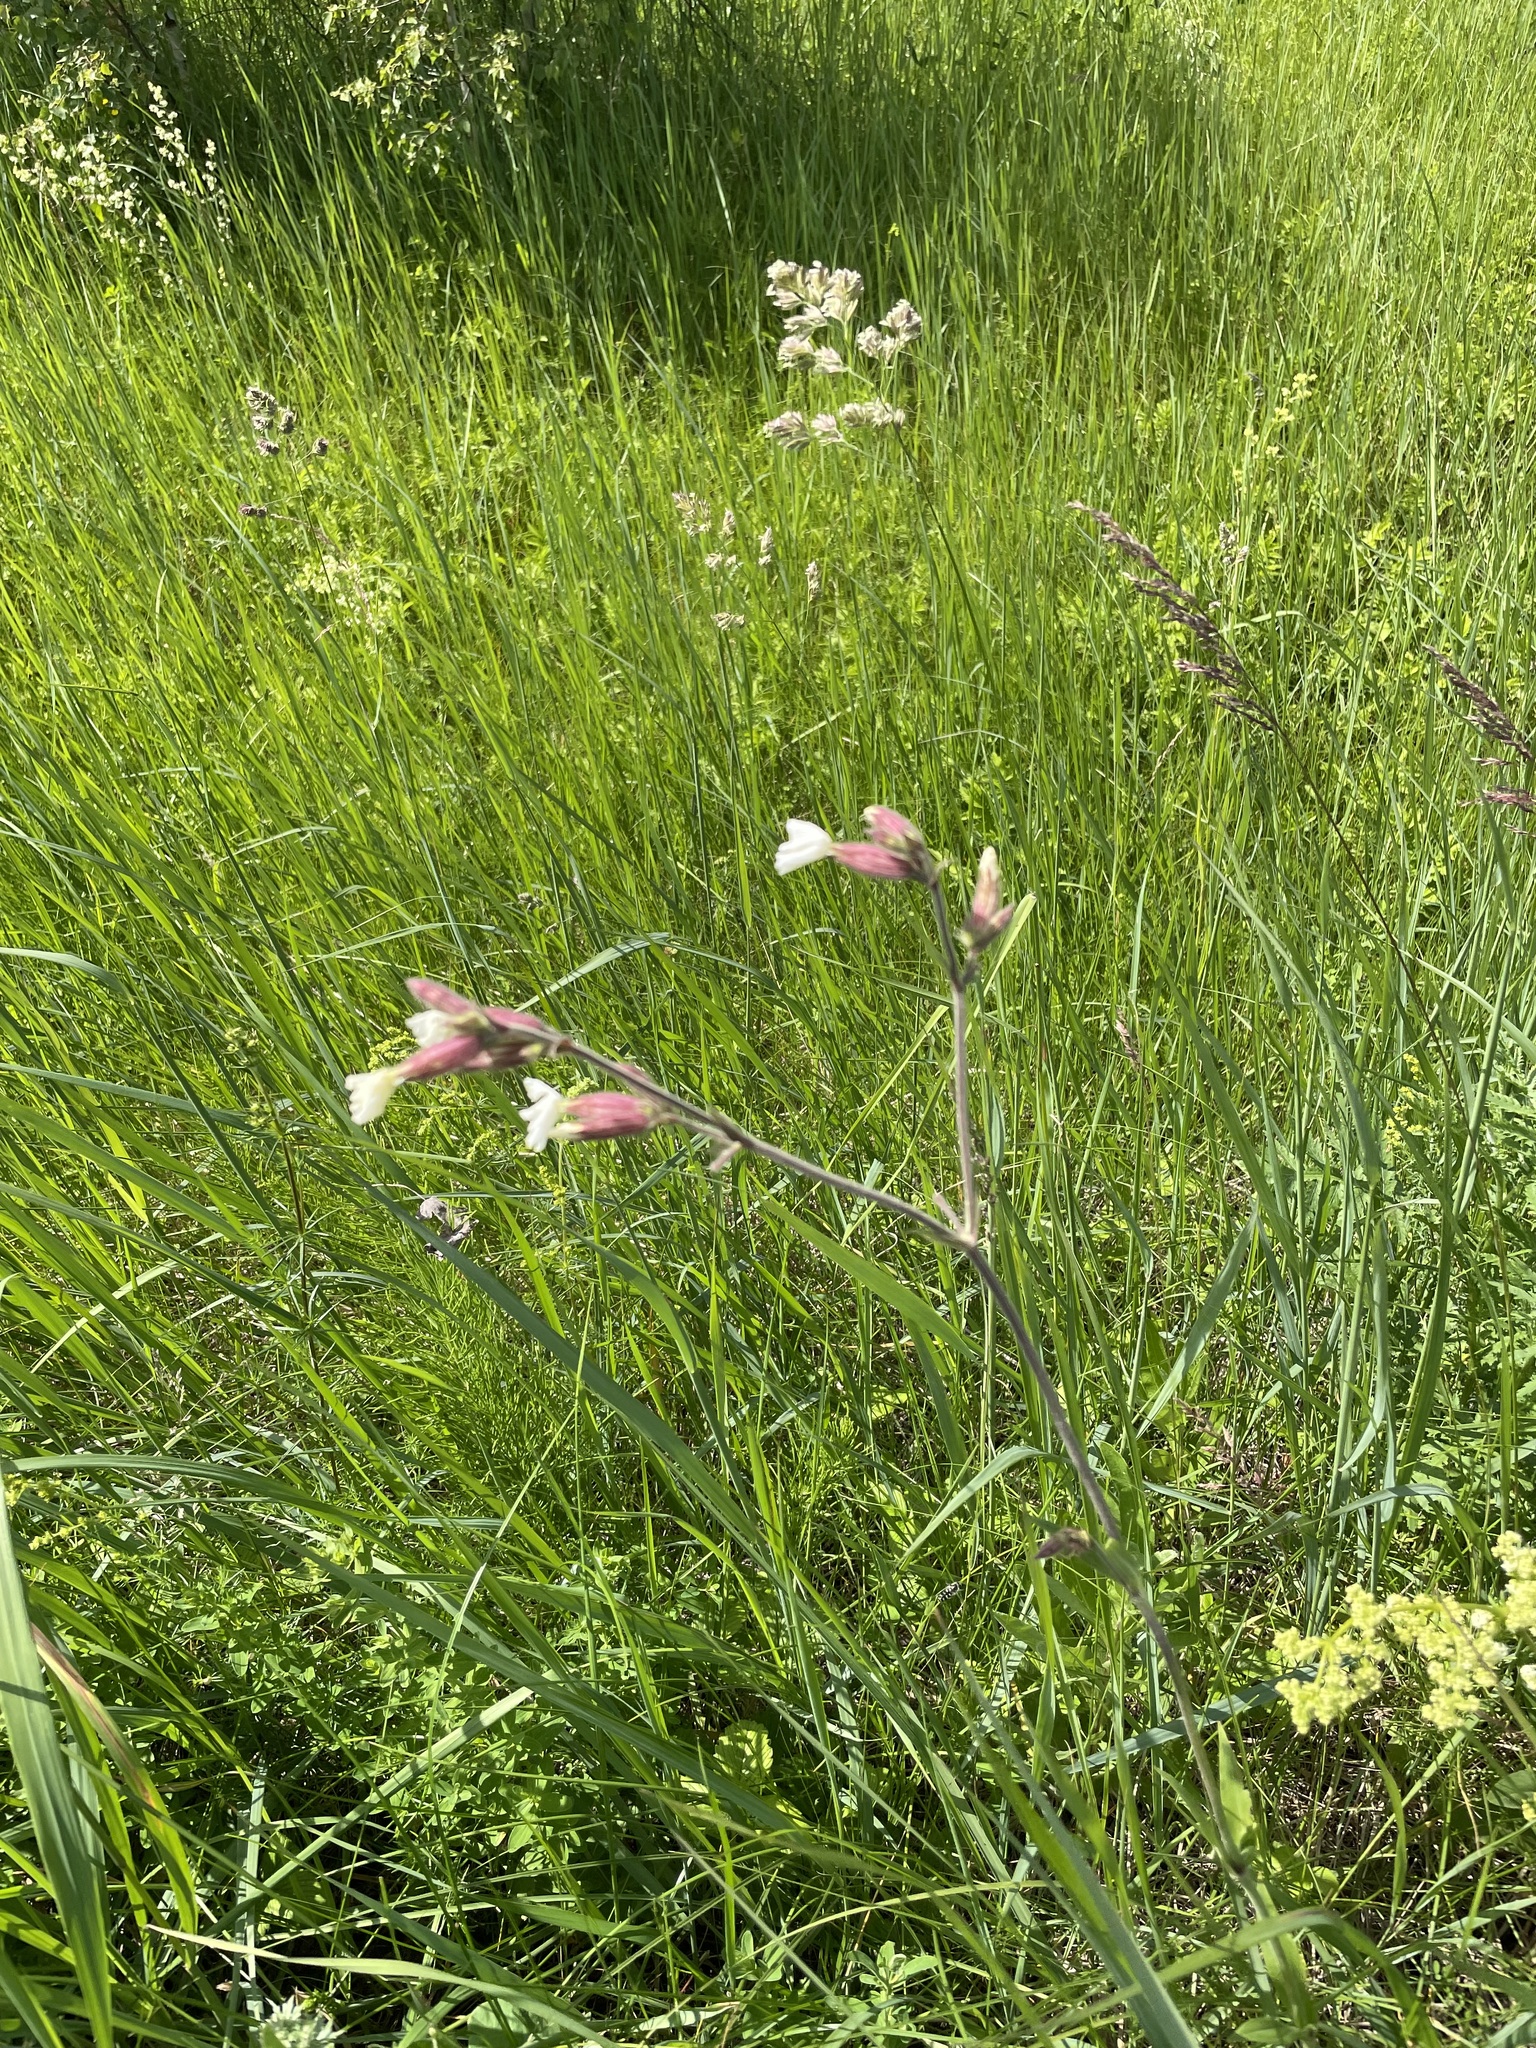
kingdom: Plantae
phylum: Tracheophyta
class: Magnoliopsida
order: Caryophyllales
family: Caryophyllaceae
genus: Silene
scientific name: Silene latifolia
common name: White campion
